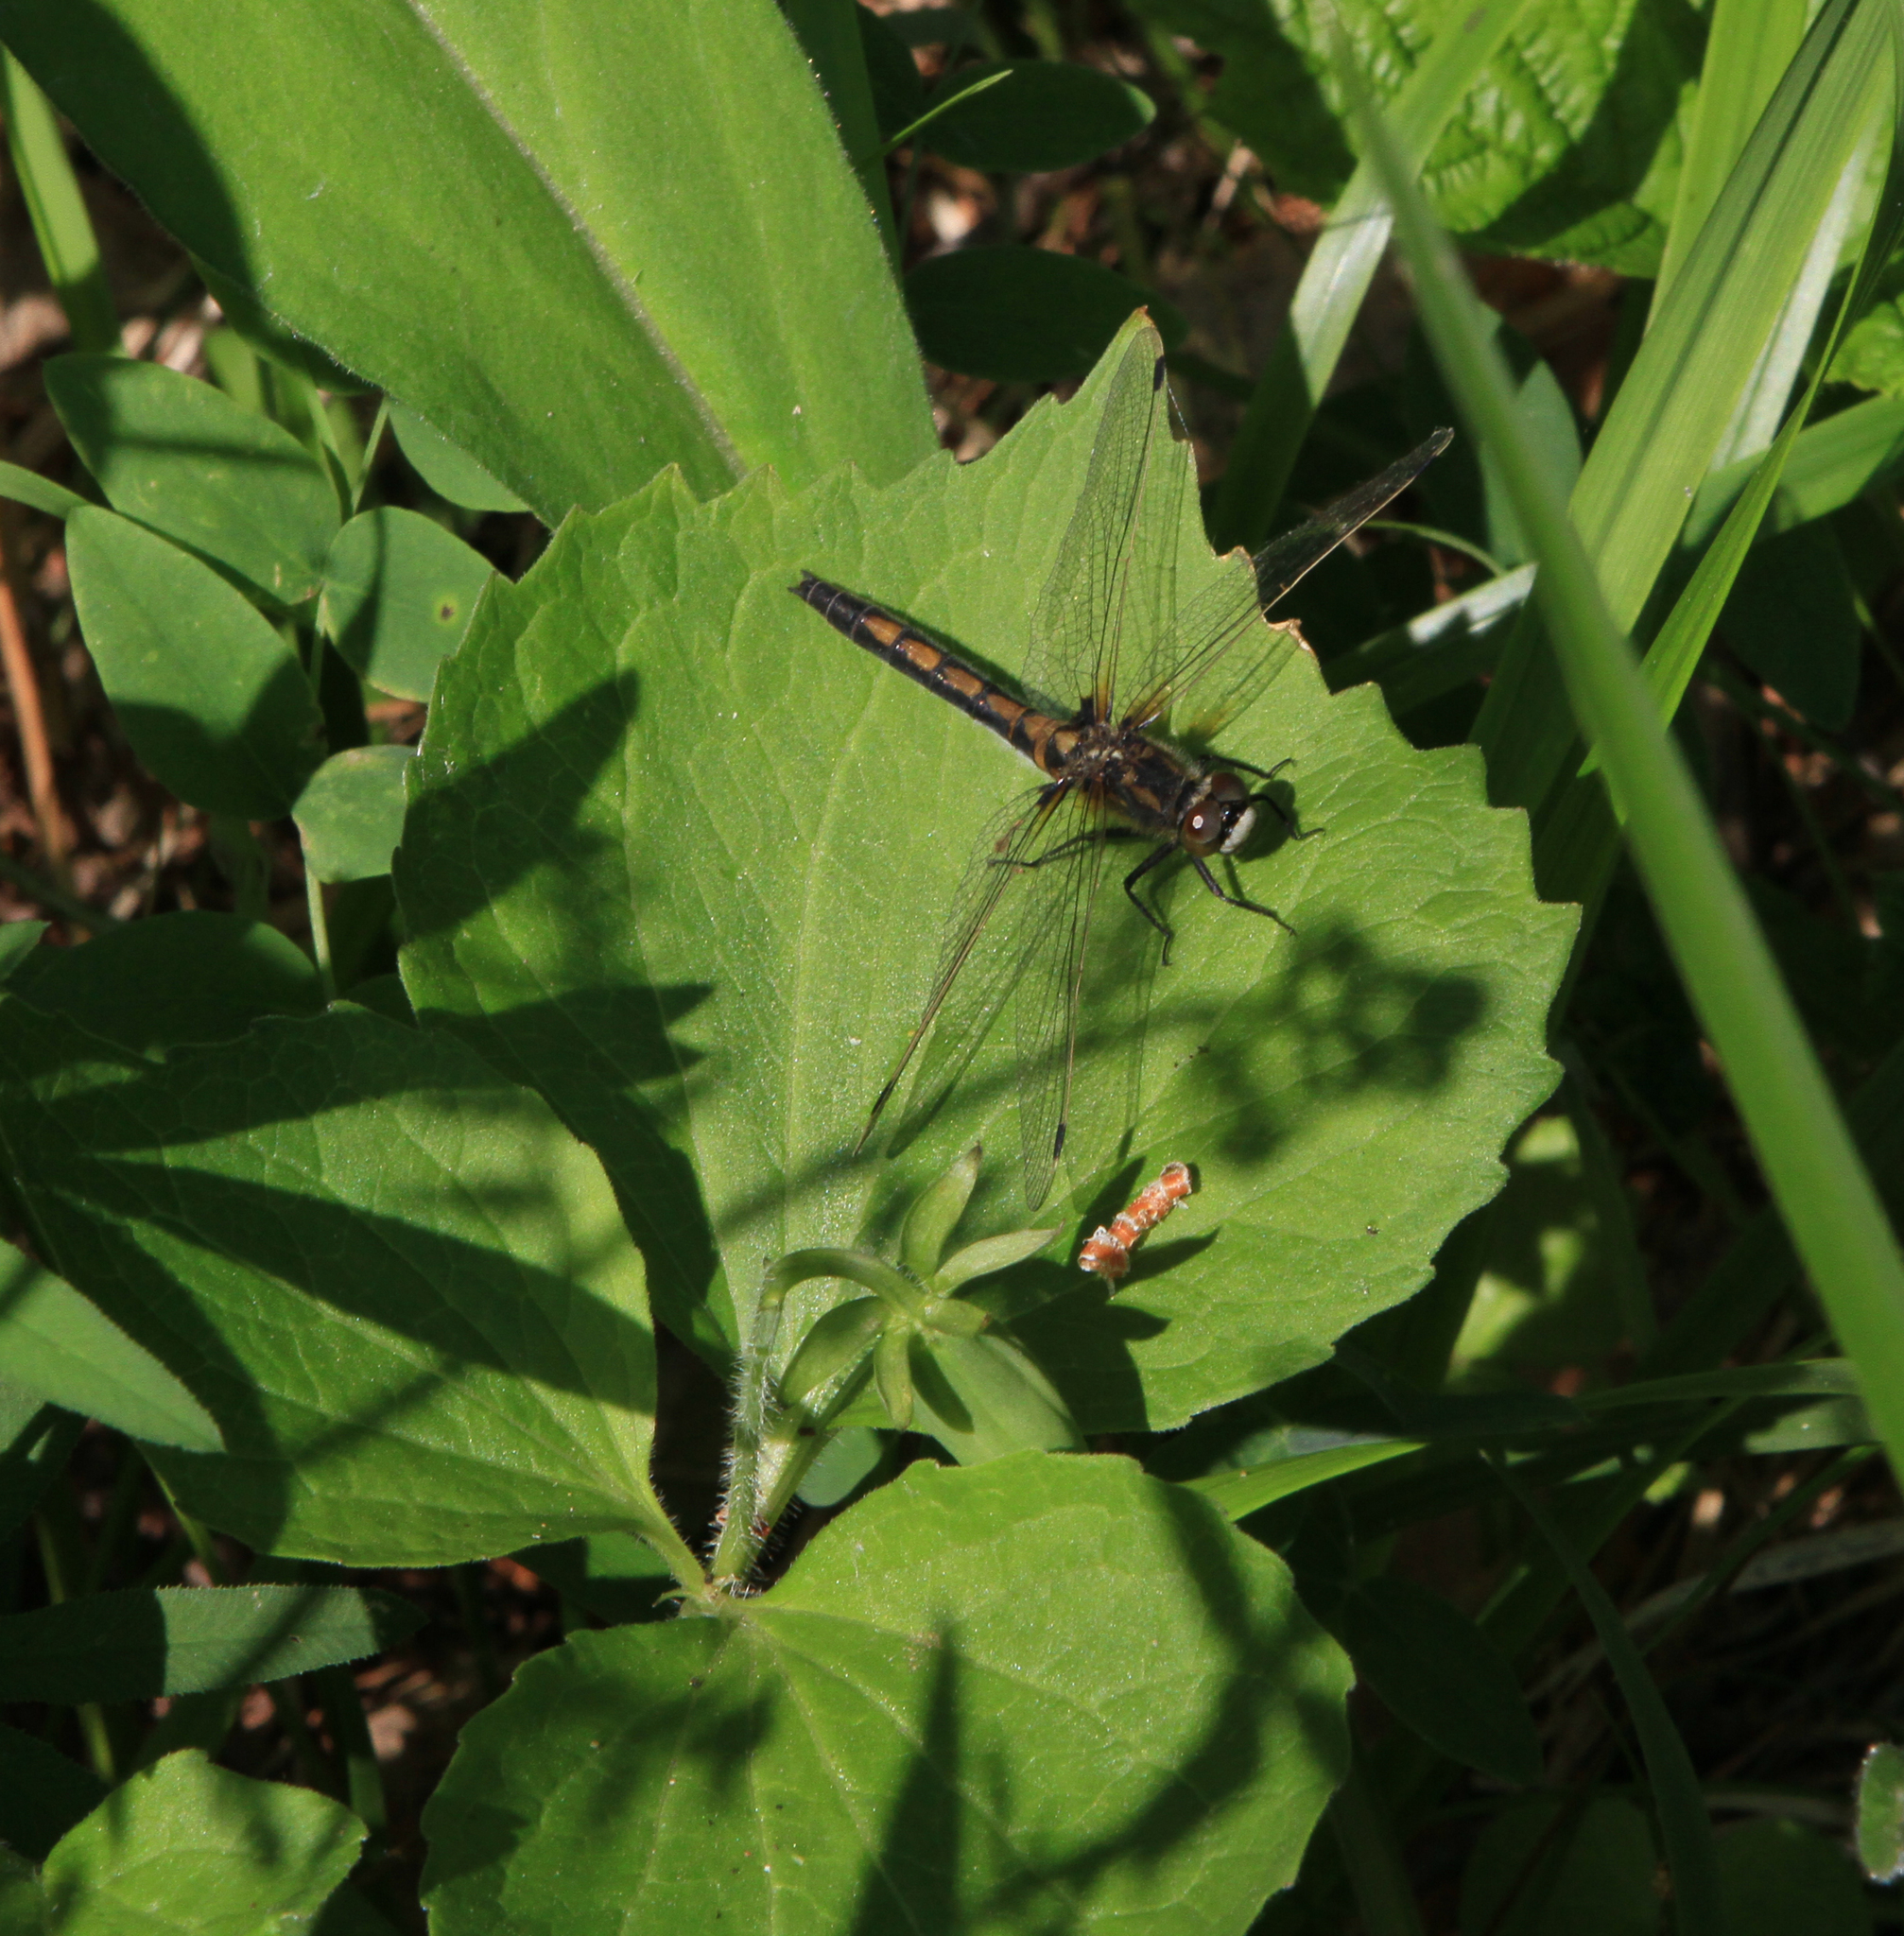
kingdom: Animalia
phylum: Arthropoda
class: Insecta
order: Odonata
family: Libellulidae
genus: Leucorrhinia
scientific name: Leucorrhinia rubicunda
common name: Ruby whiteface
